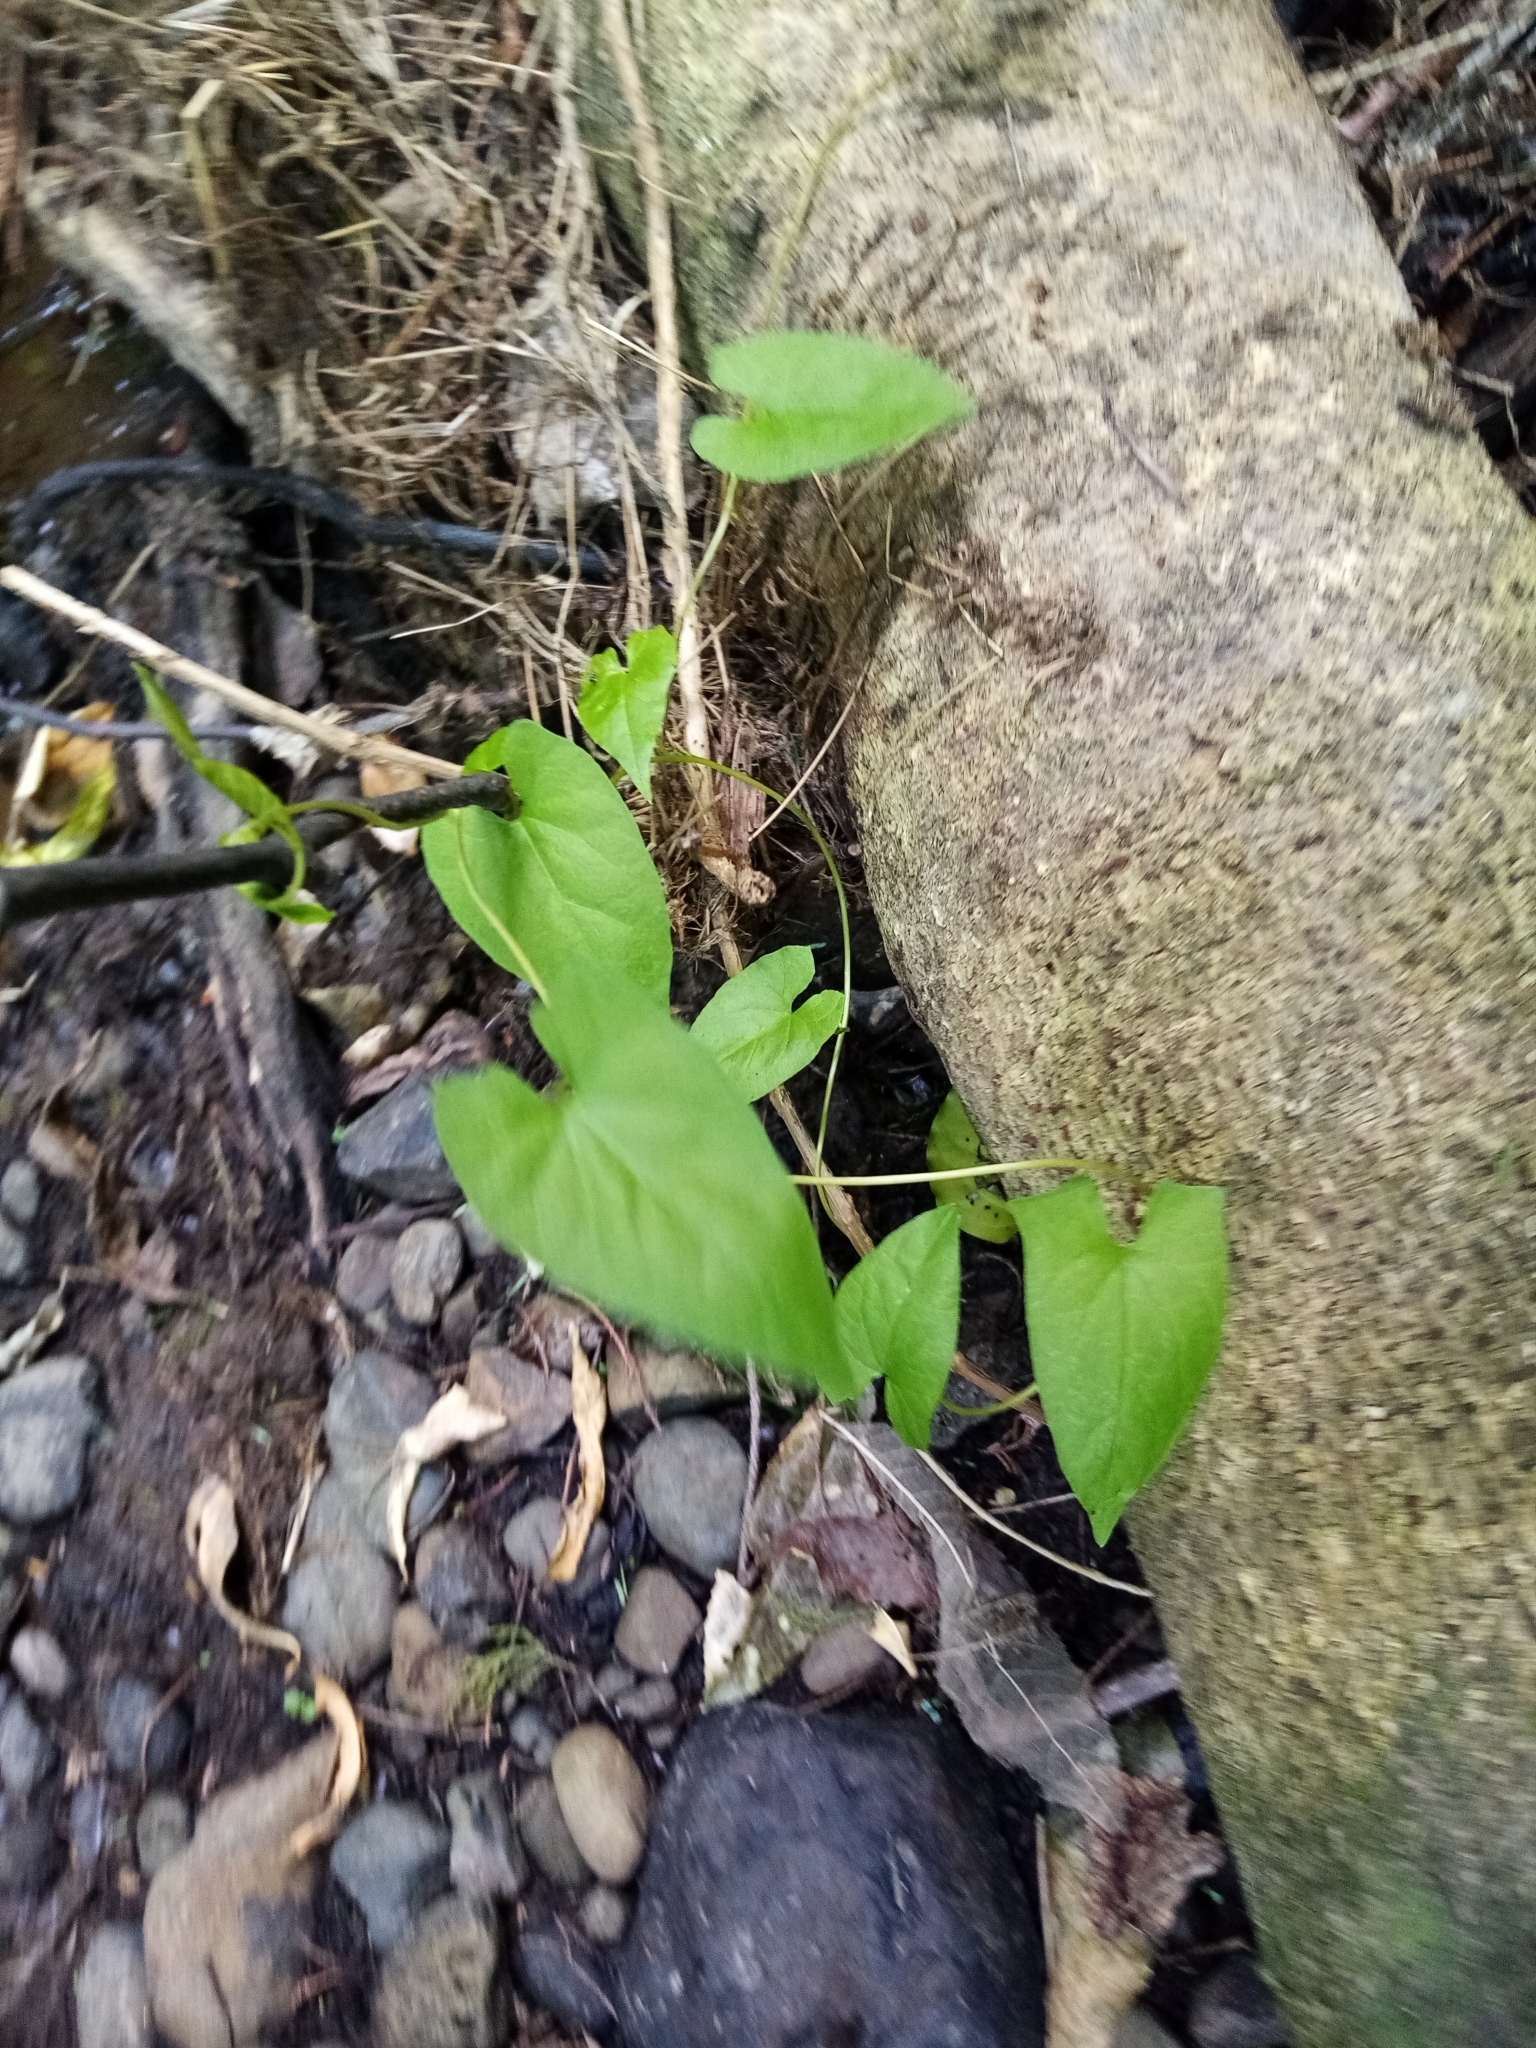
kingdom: Plantae
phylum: Tracheophyta
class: Magnoliopsida
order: Solanales
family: Convolvulaceae
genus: Calystegia
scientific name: Calystegia silvatica
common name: Large bindweed
